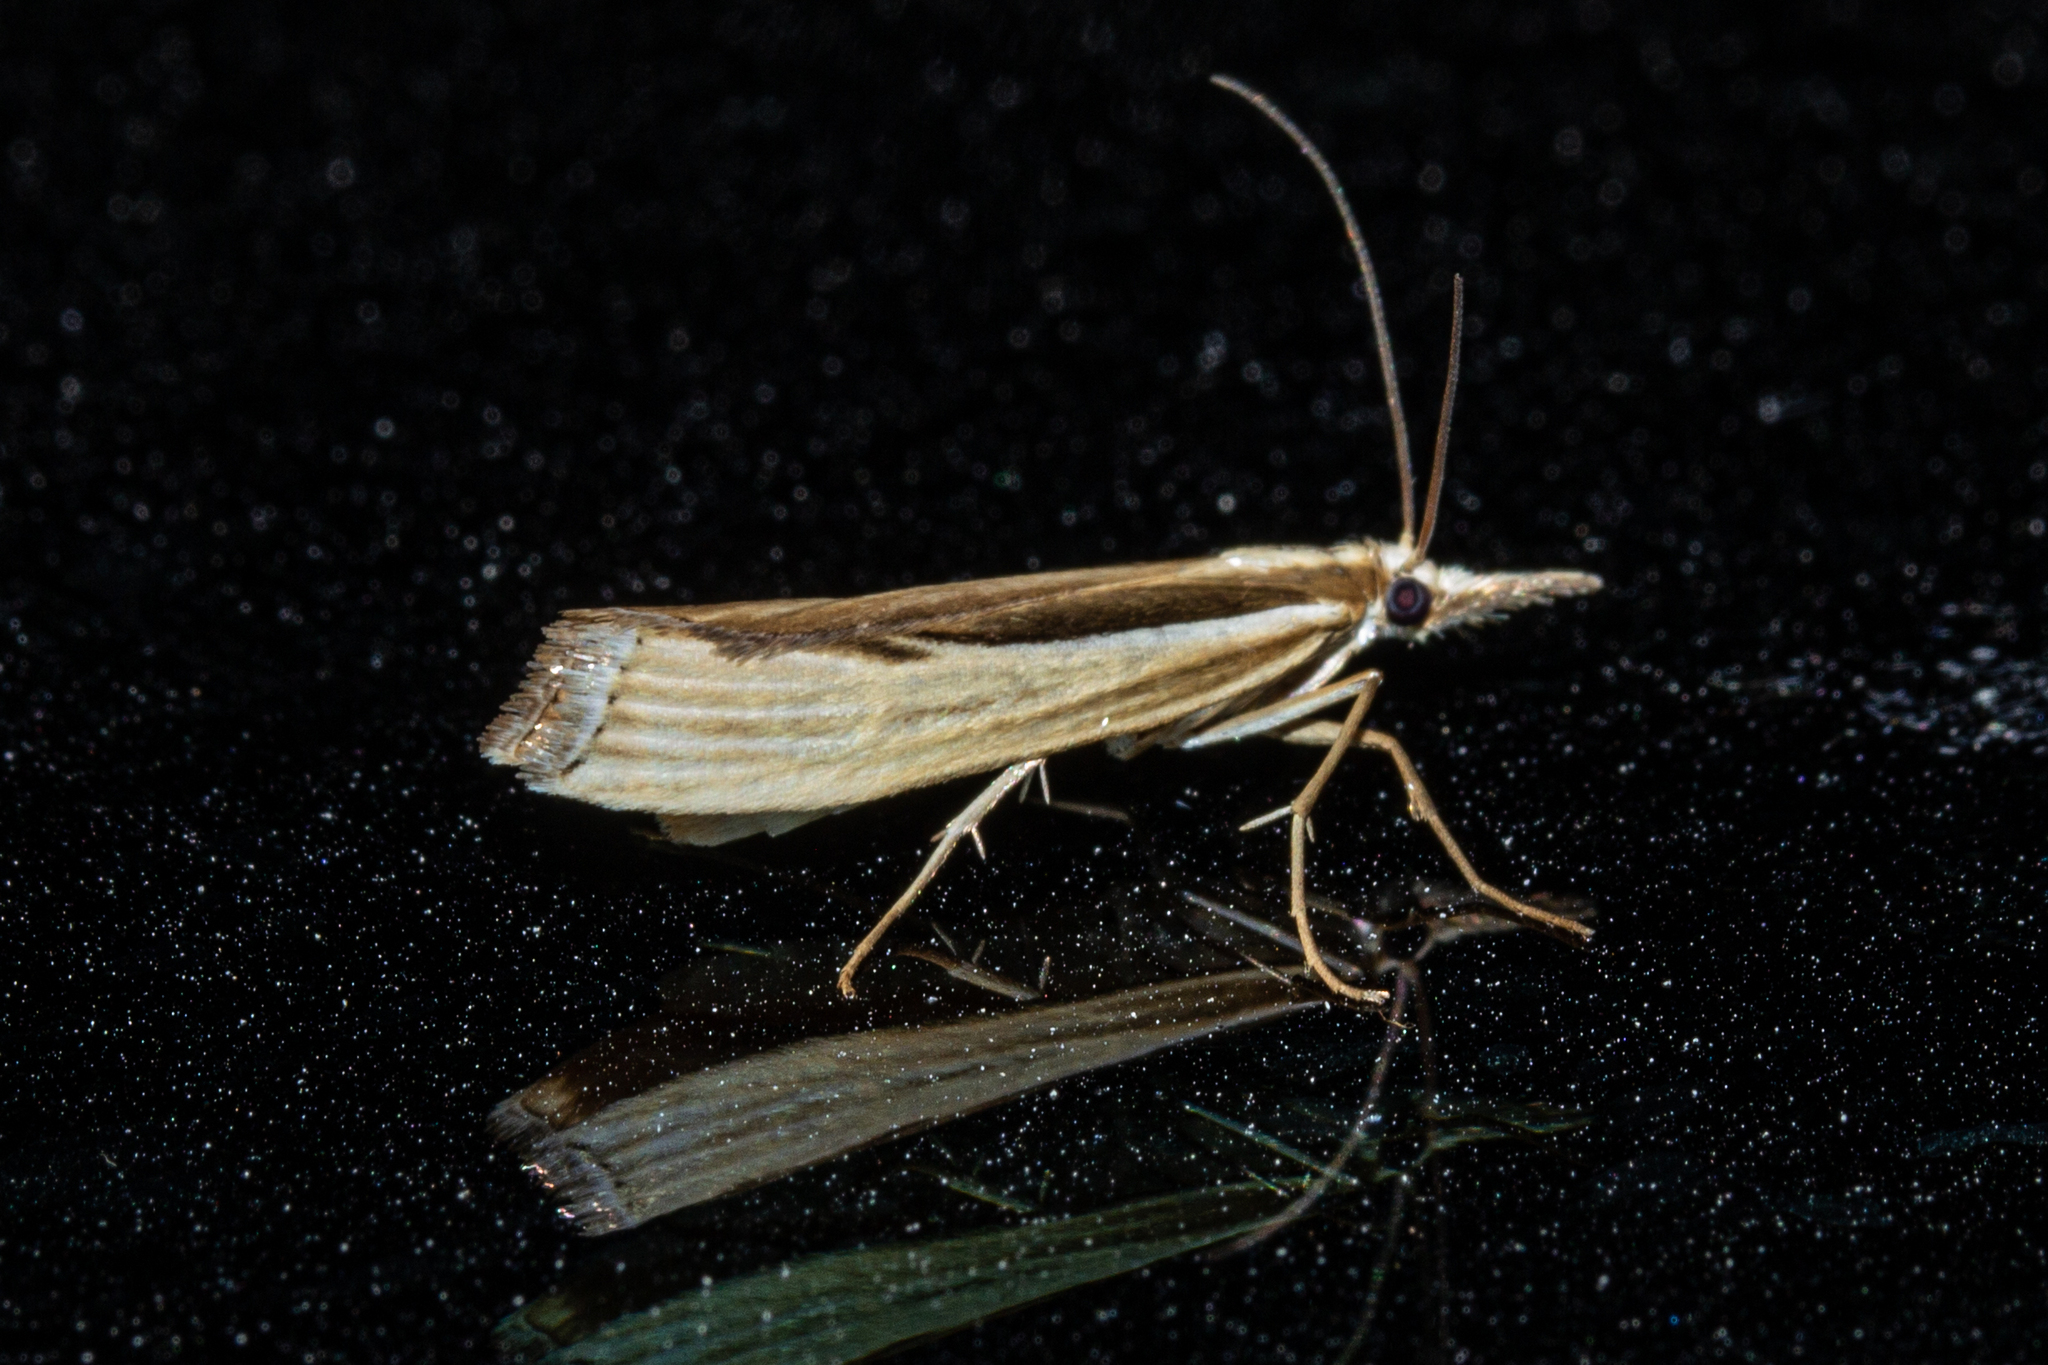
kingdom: Animalia
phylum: Arthropoda
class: Insecta
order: Lepidoptera
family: Crambidae
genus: Orocrambus
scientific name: Orocrambus ramosellus
